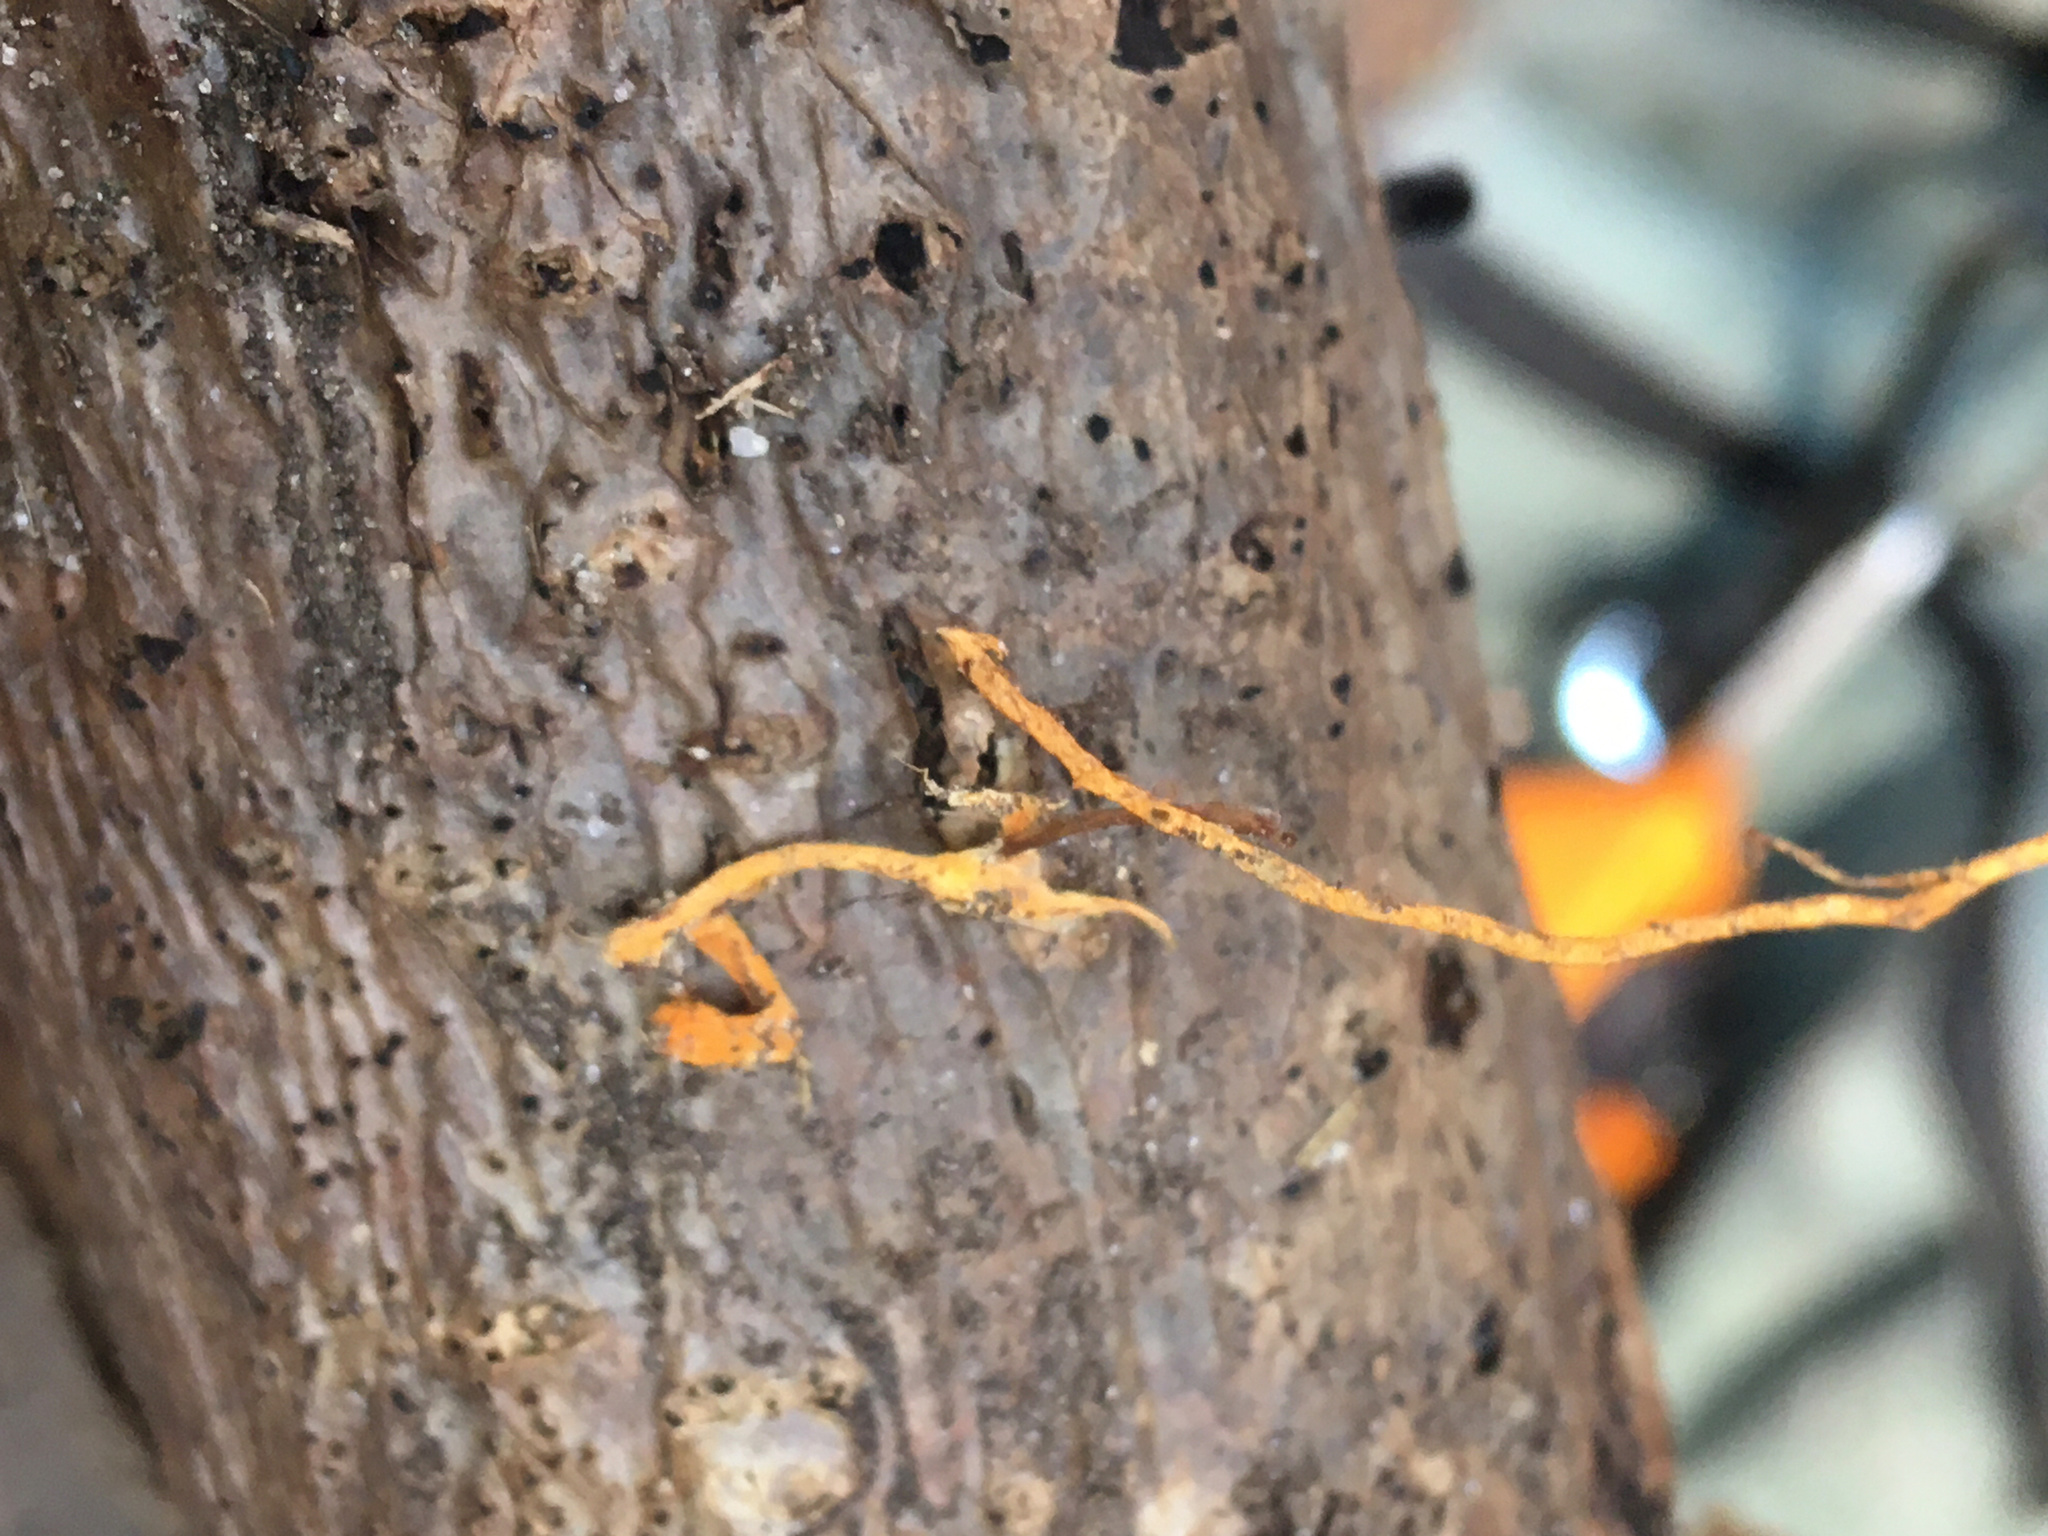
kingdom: Fungi
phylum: Basidiomycota
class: Agaricomycetes
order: Polyporales
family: Meruliaceae
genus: Hydnophlebia
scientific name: Hydnophlebia chrysorhiza
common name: Spreading yellow tooth
